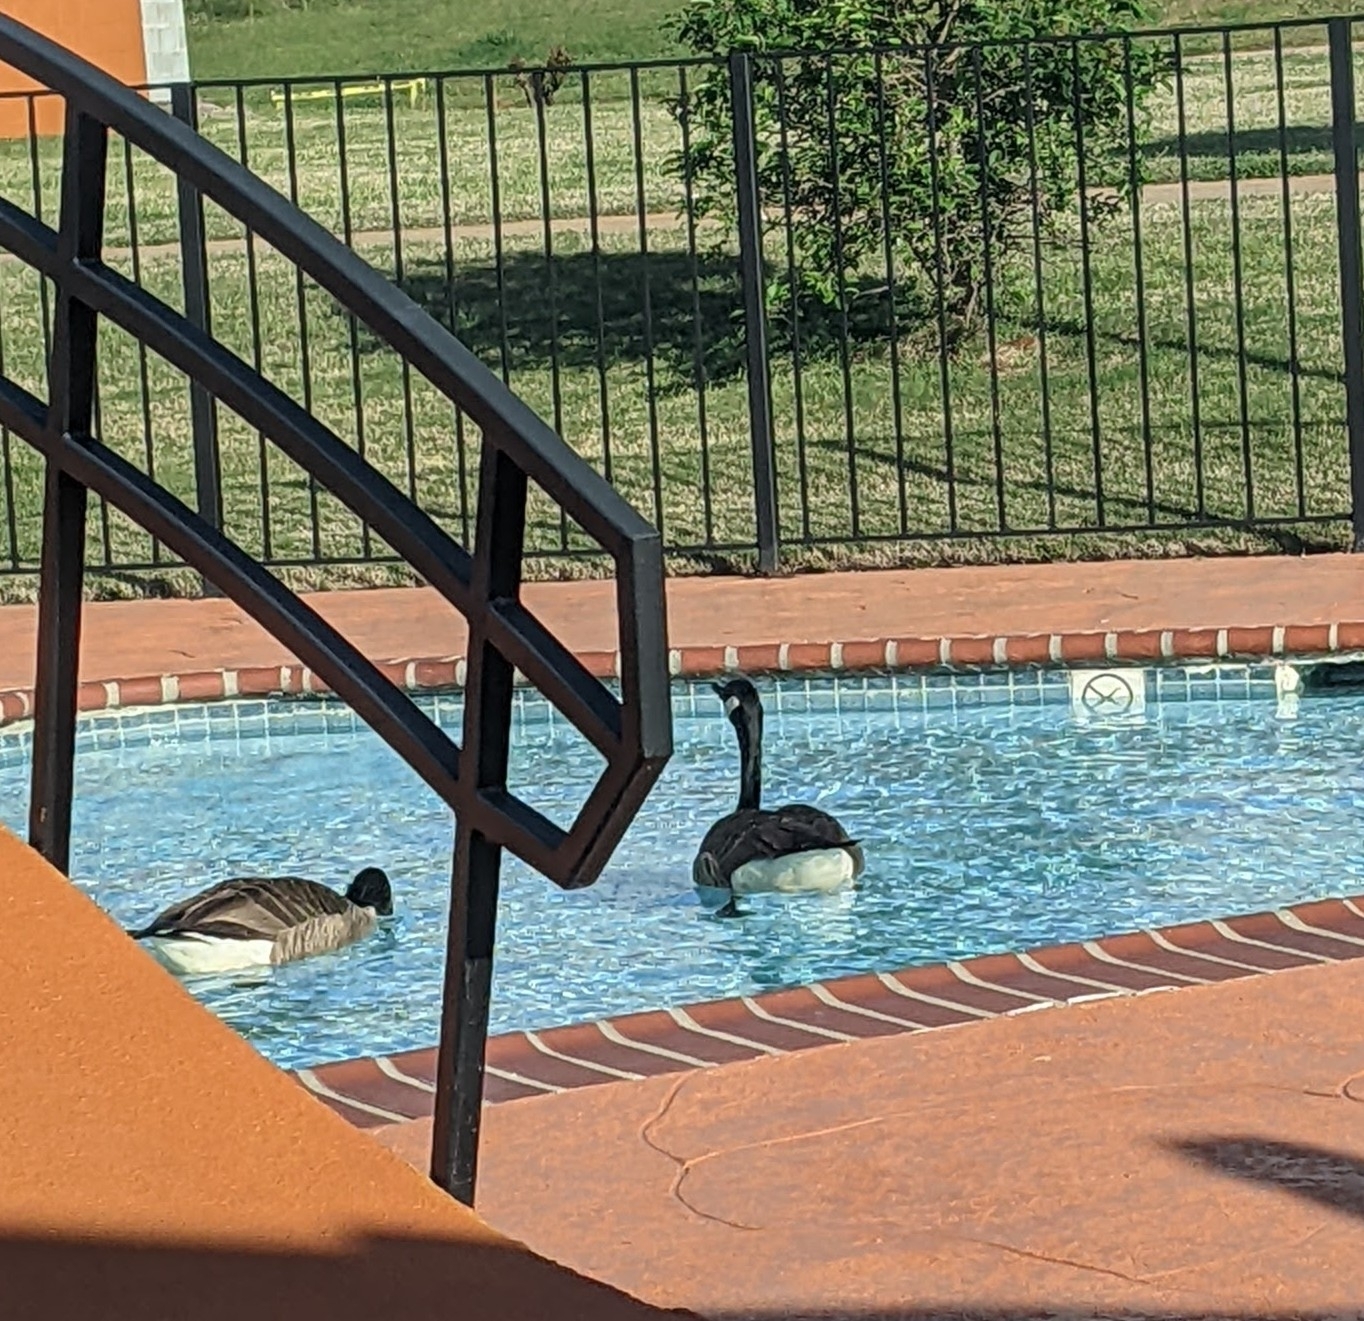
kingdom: Animalia
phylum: Chordata
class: Aves
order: Anseriformes
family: Anatidae
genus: Branta
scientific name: Branta canadensis
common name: Canada goose
